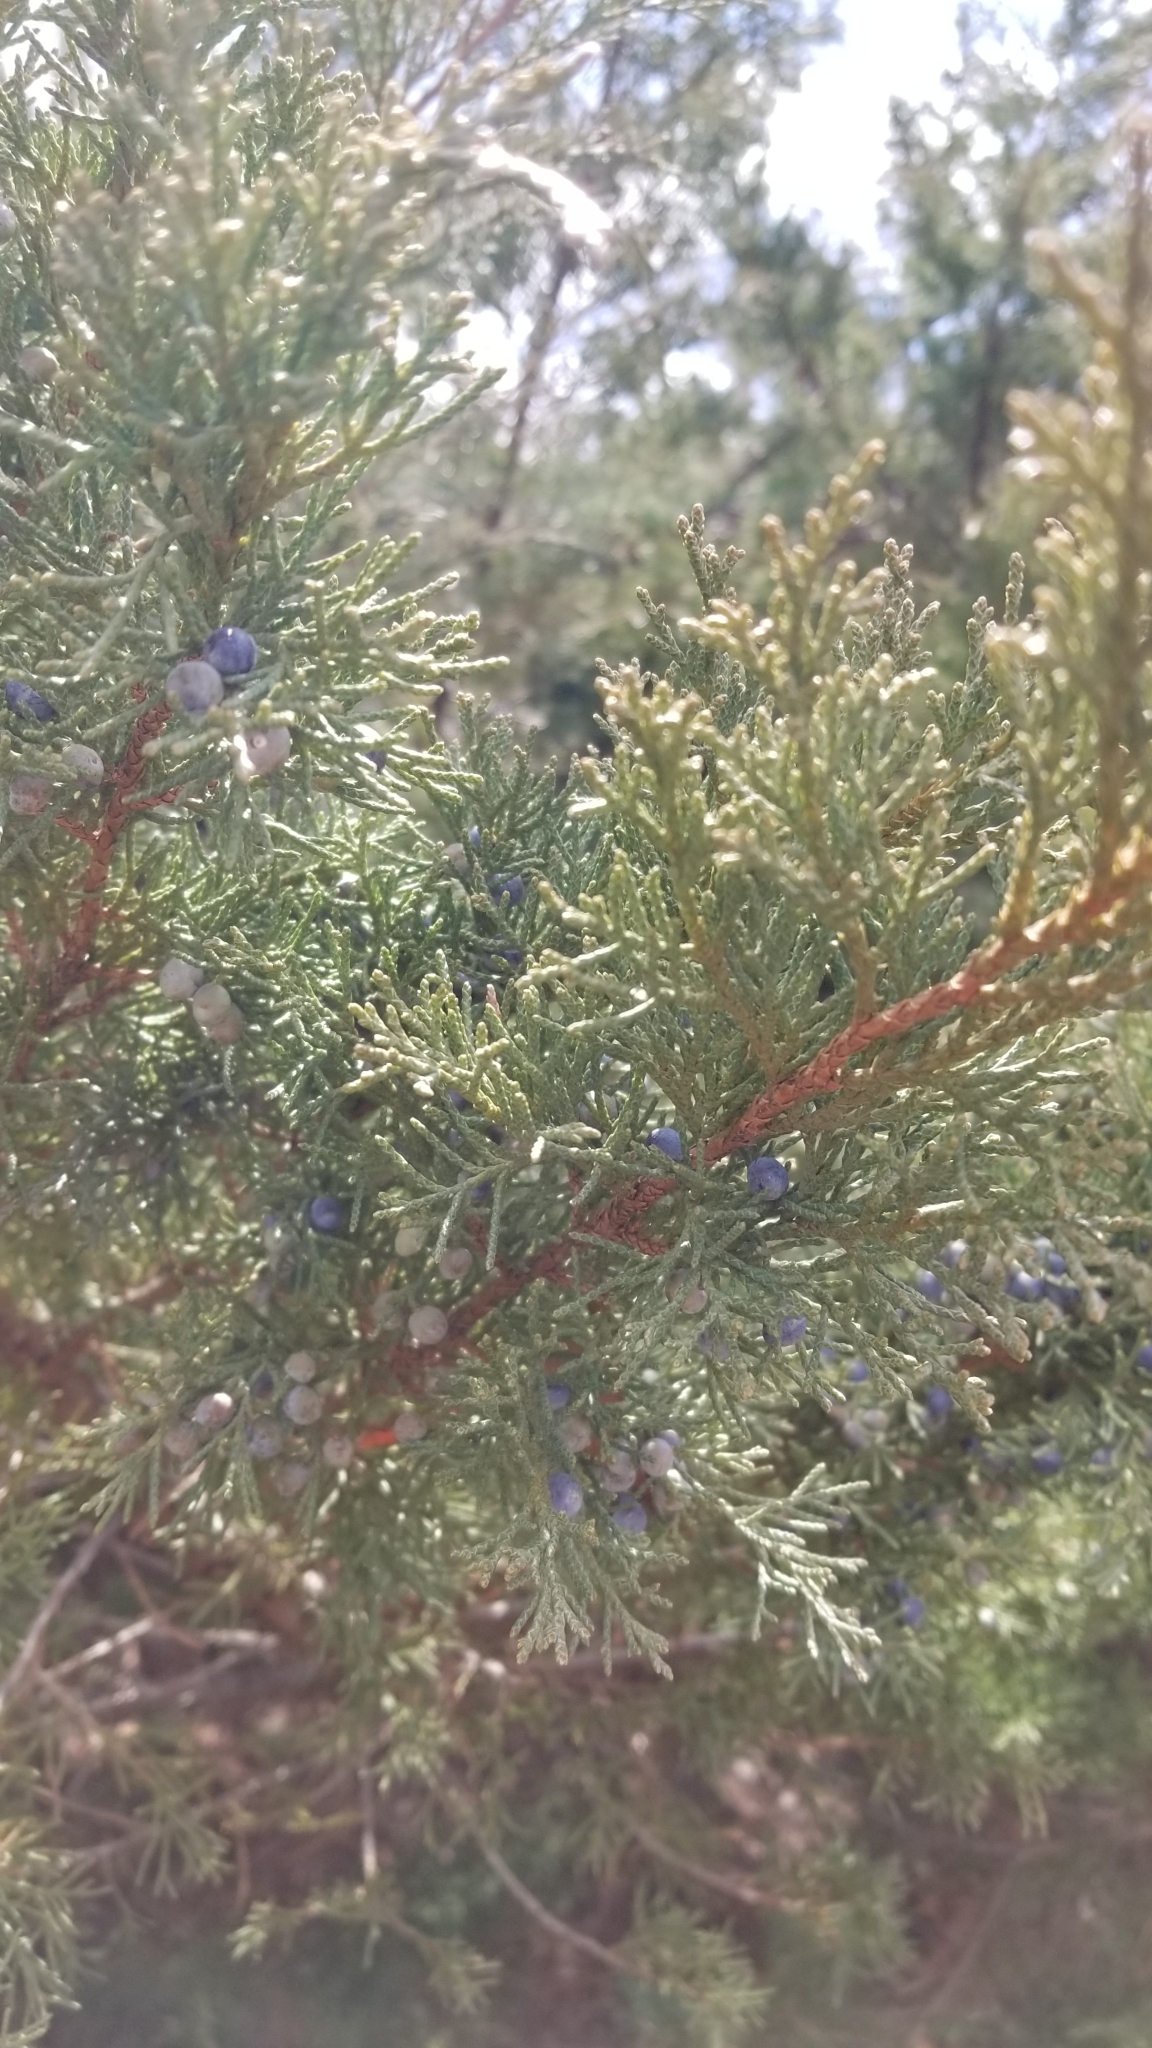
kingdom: Plantae
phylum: Tracheophyta
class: Pinopsida
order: Pinales
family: Cupressaceae
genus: Juniperus
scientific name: Juniperus virginiana
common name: Red juniper
